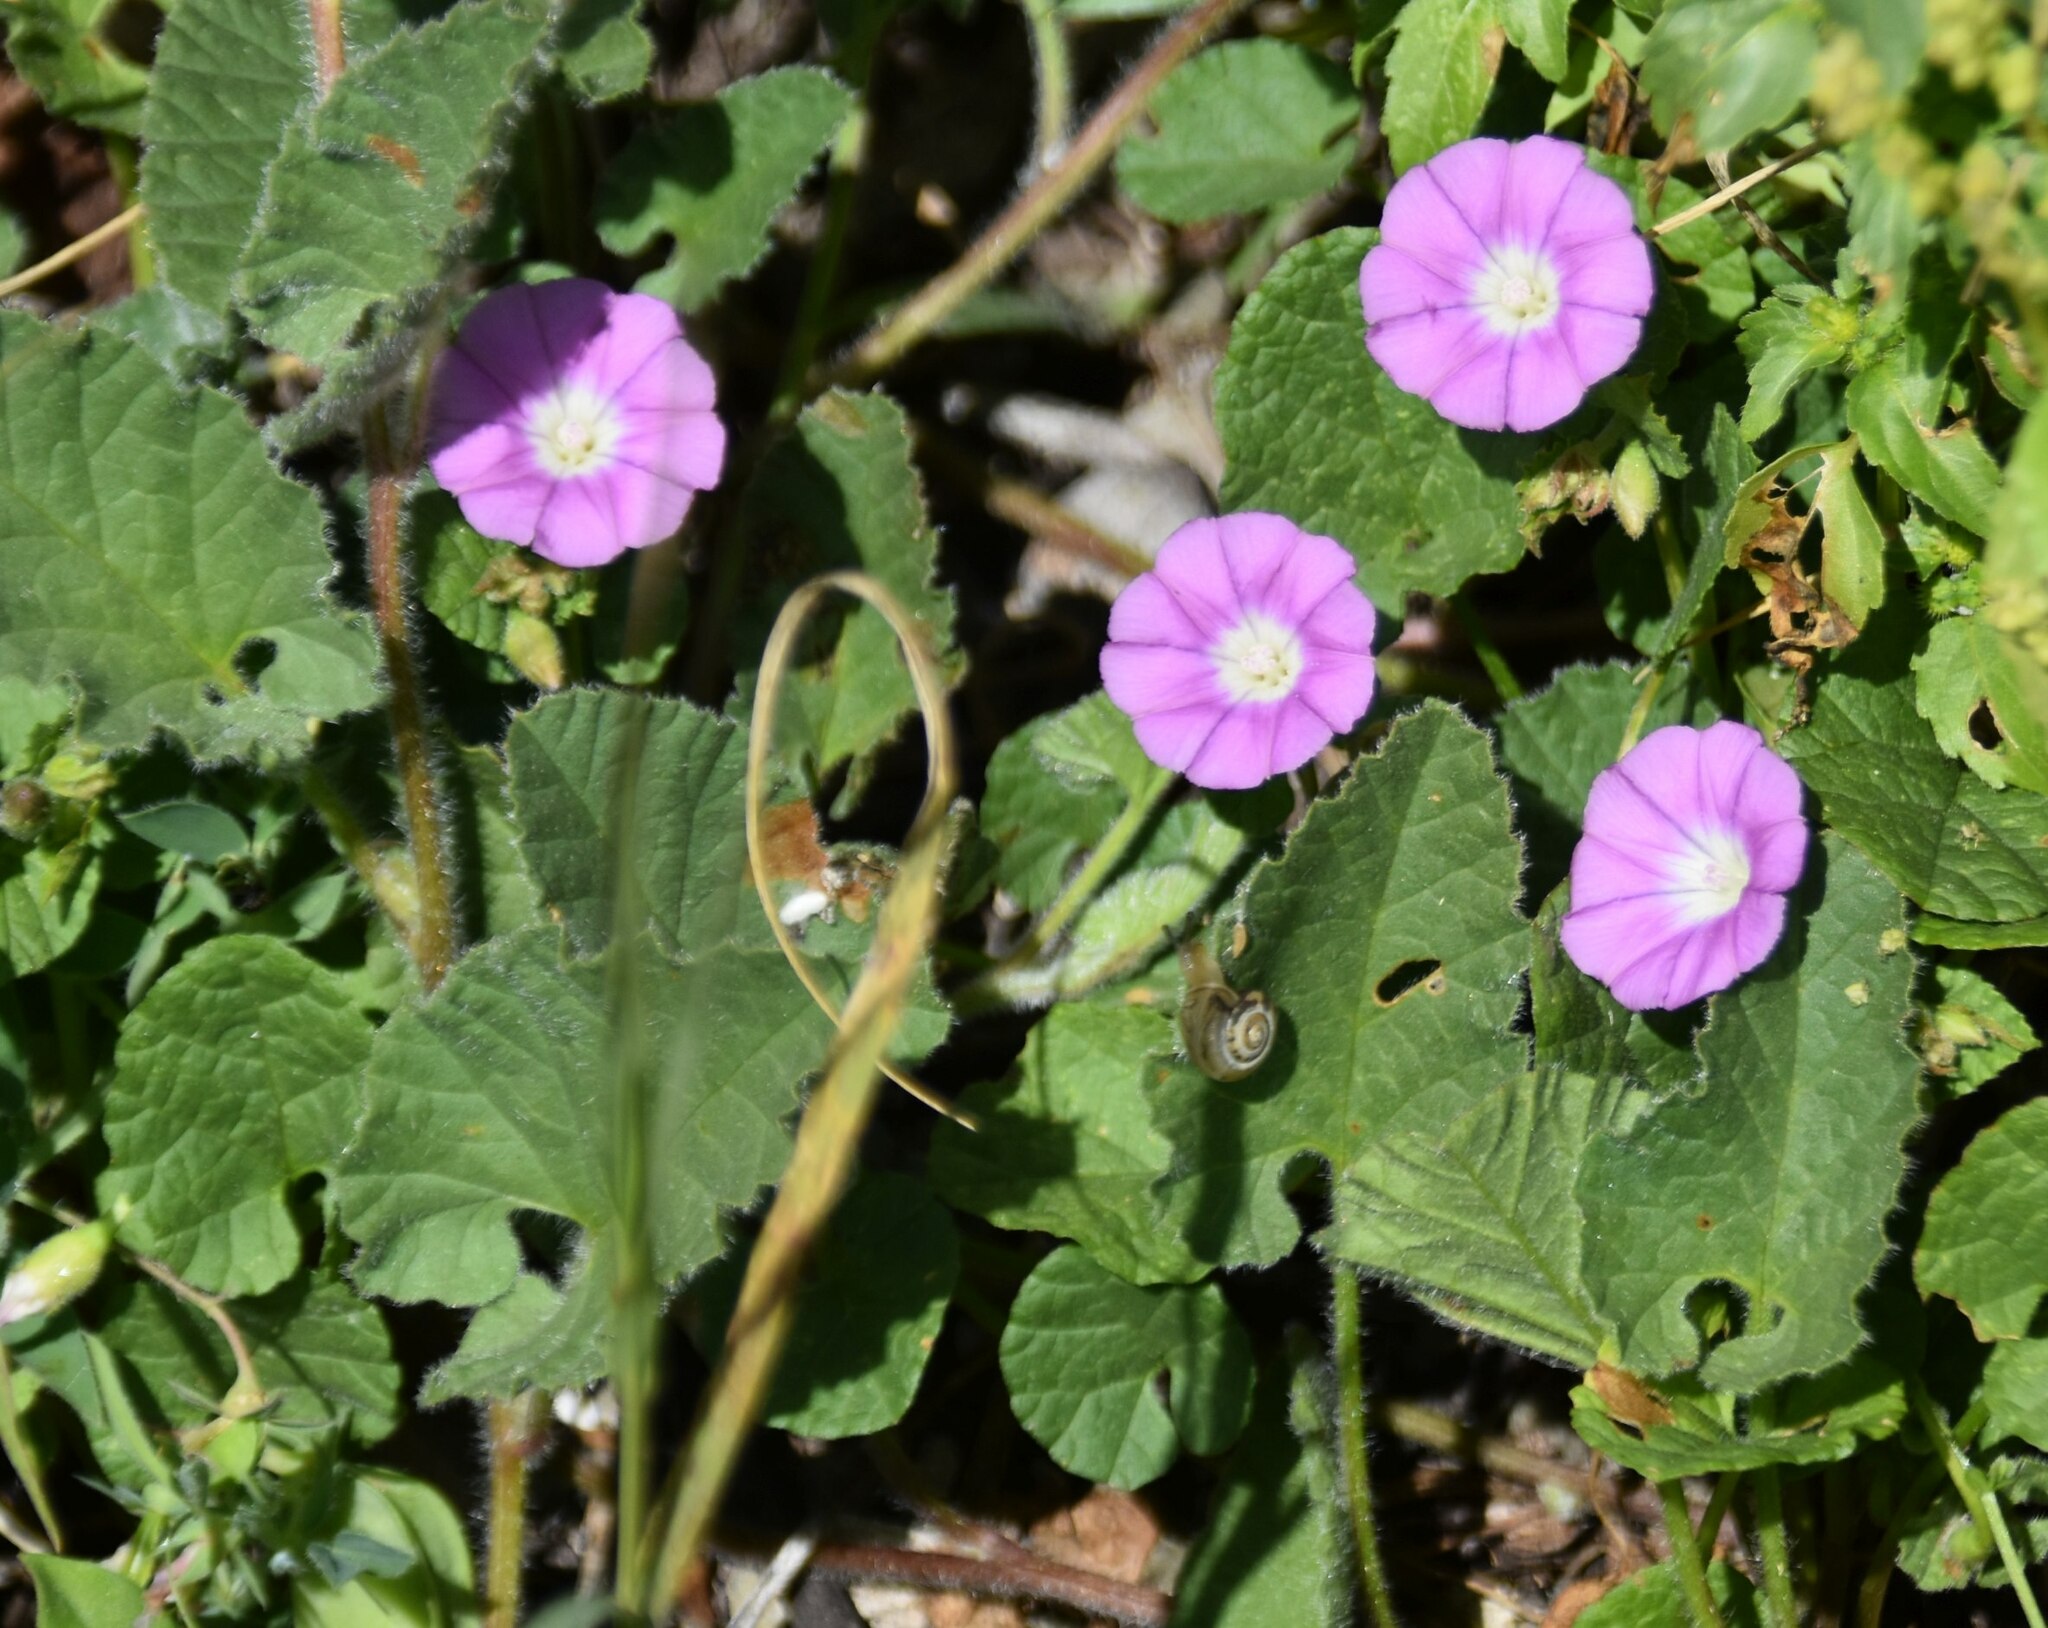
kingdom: Plantae
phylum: Tracheophyta
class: Magnoliopsida
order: Solanales
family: Convolvulaceae
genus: Convolvulus
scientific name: Convolvulus coelesyriacus
